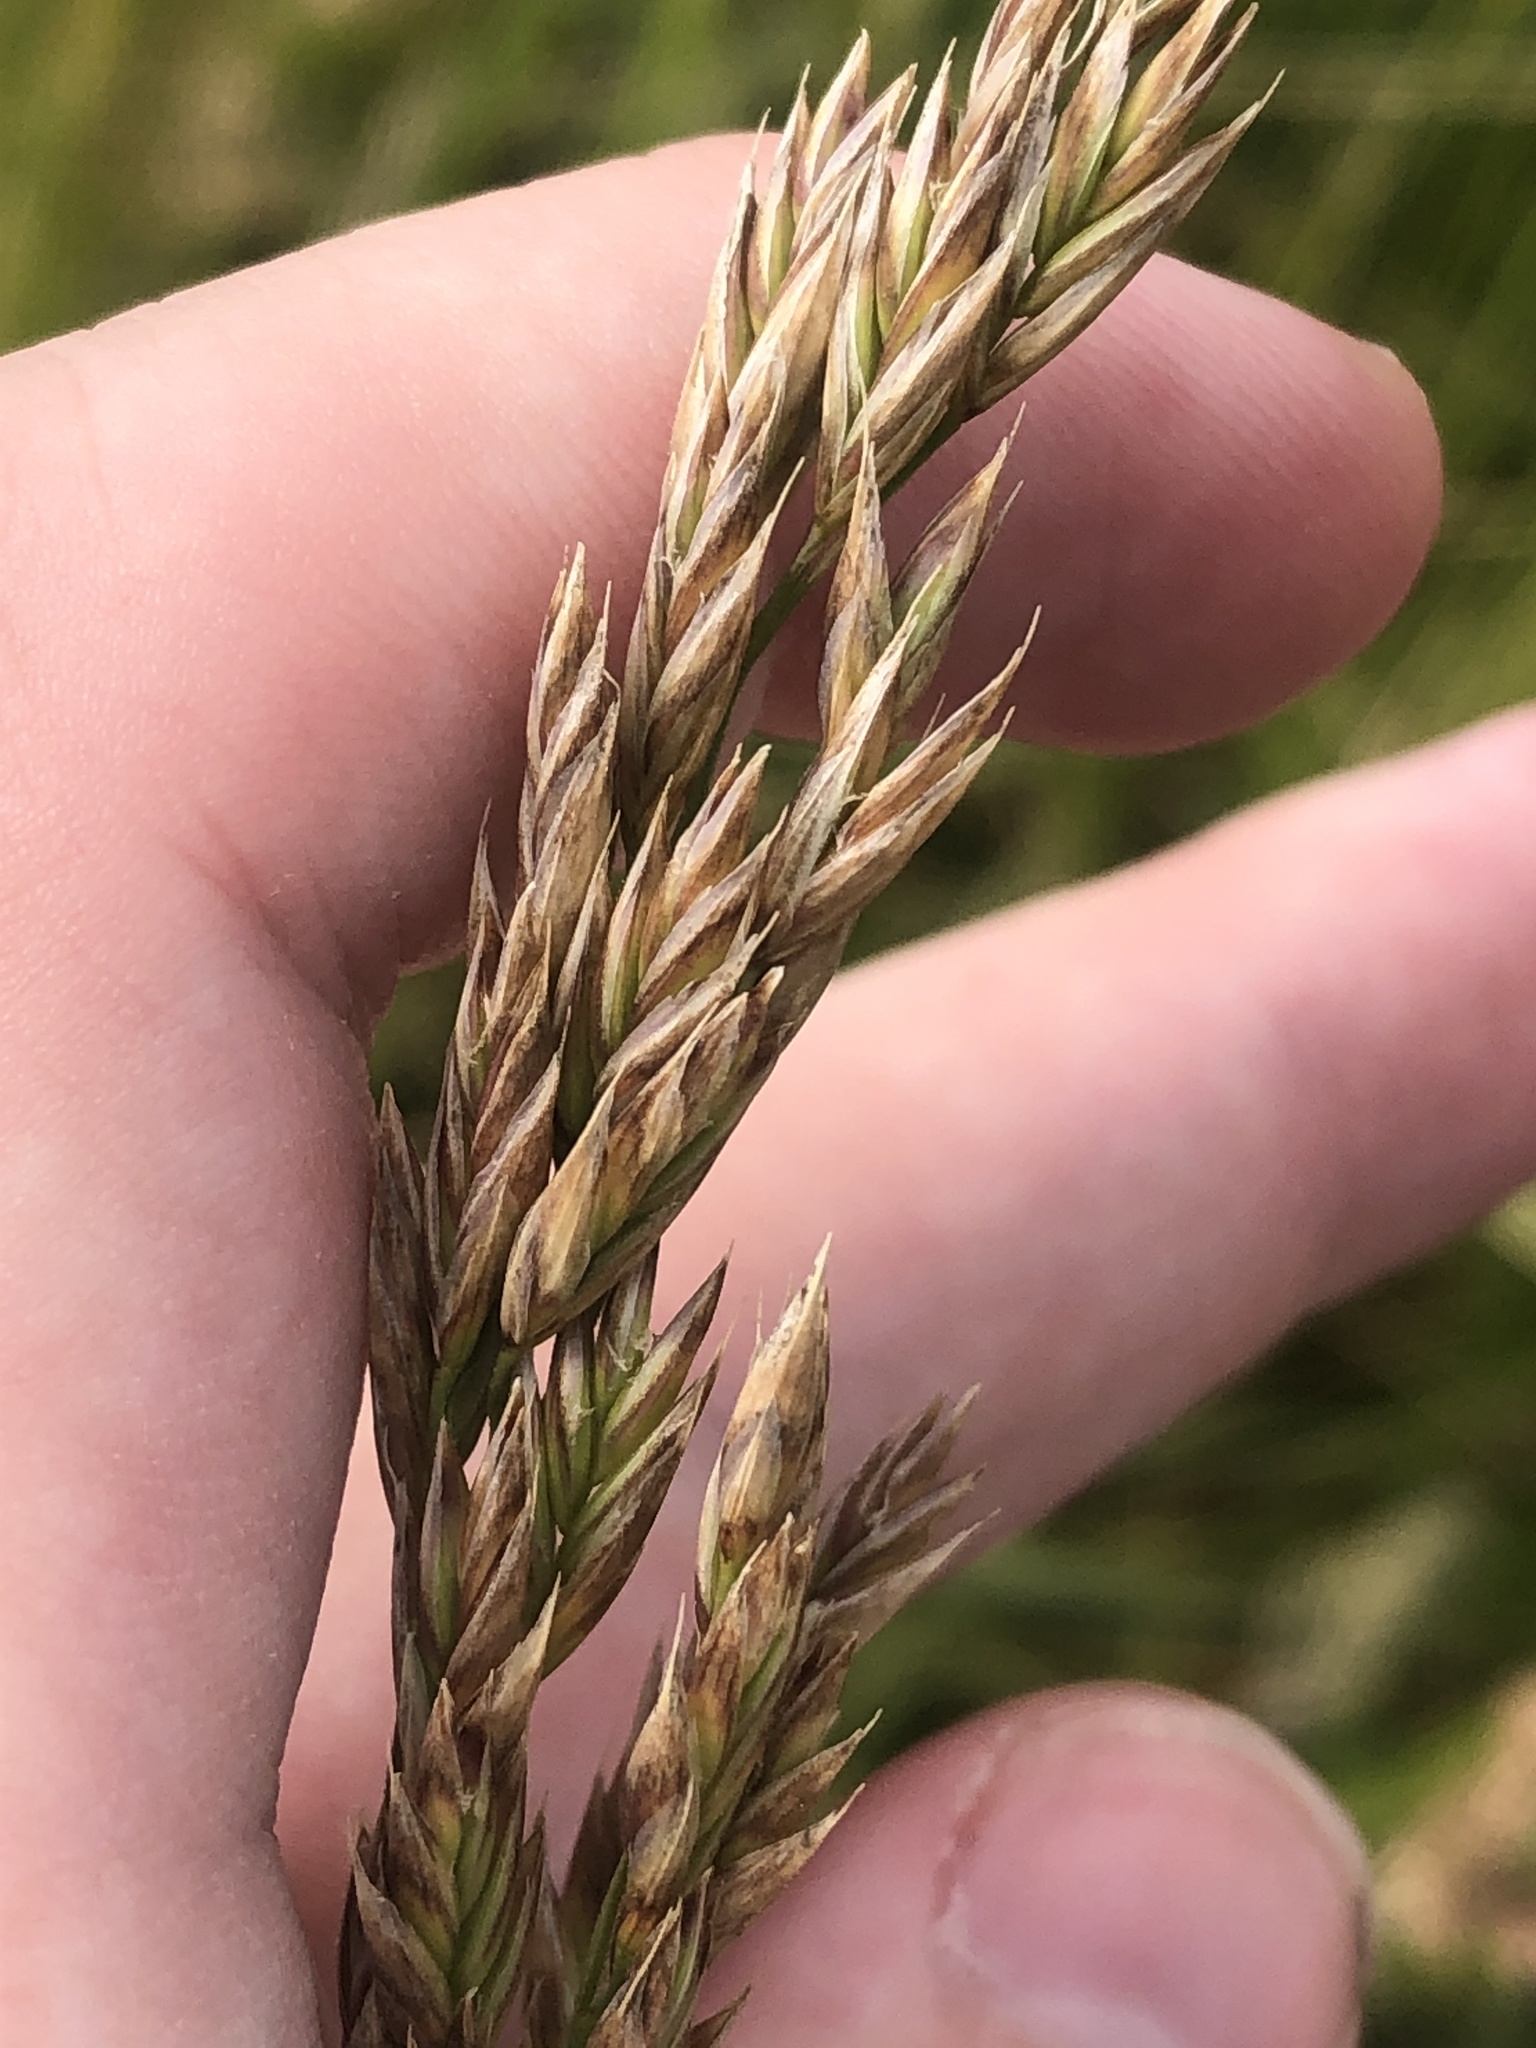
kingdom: Plantae
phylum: Tracheophyta
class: Liliopsida
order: Poales
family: Poaceae
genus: Lolium
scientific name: Lolium arundinaceum
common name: Reed fescue
